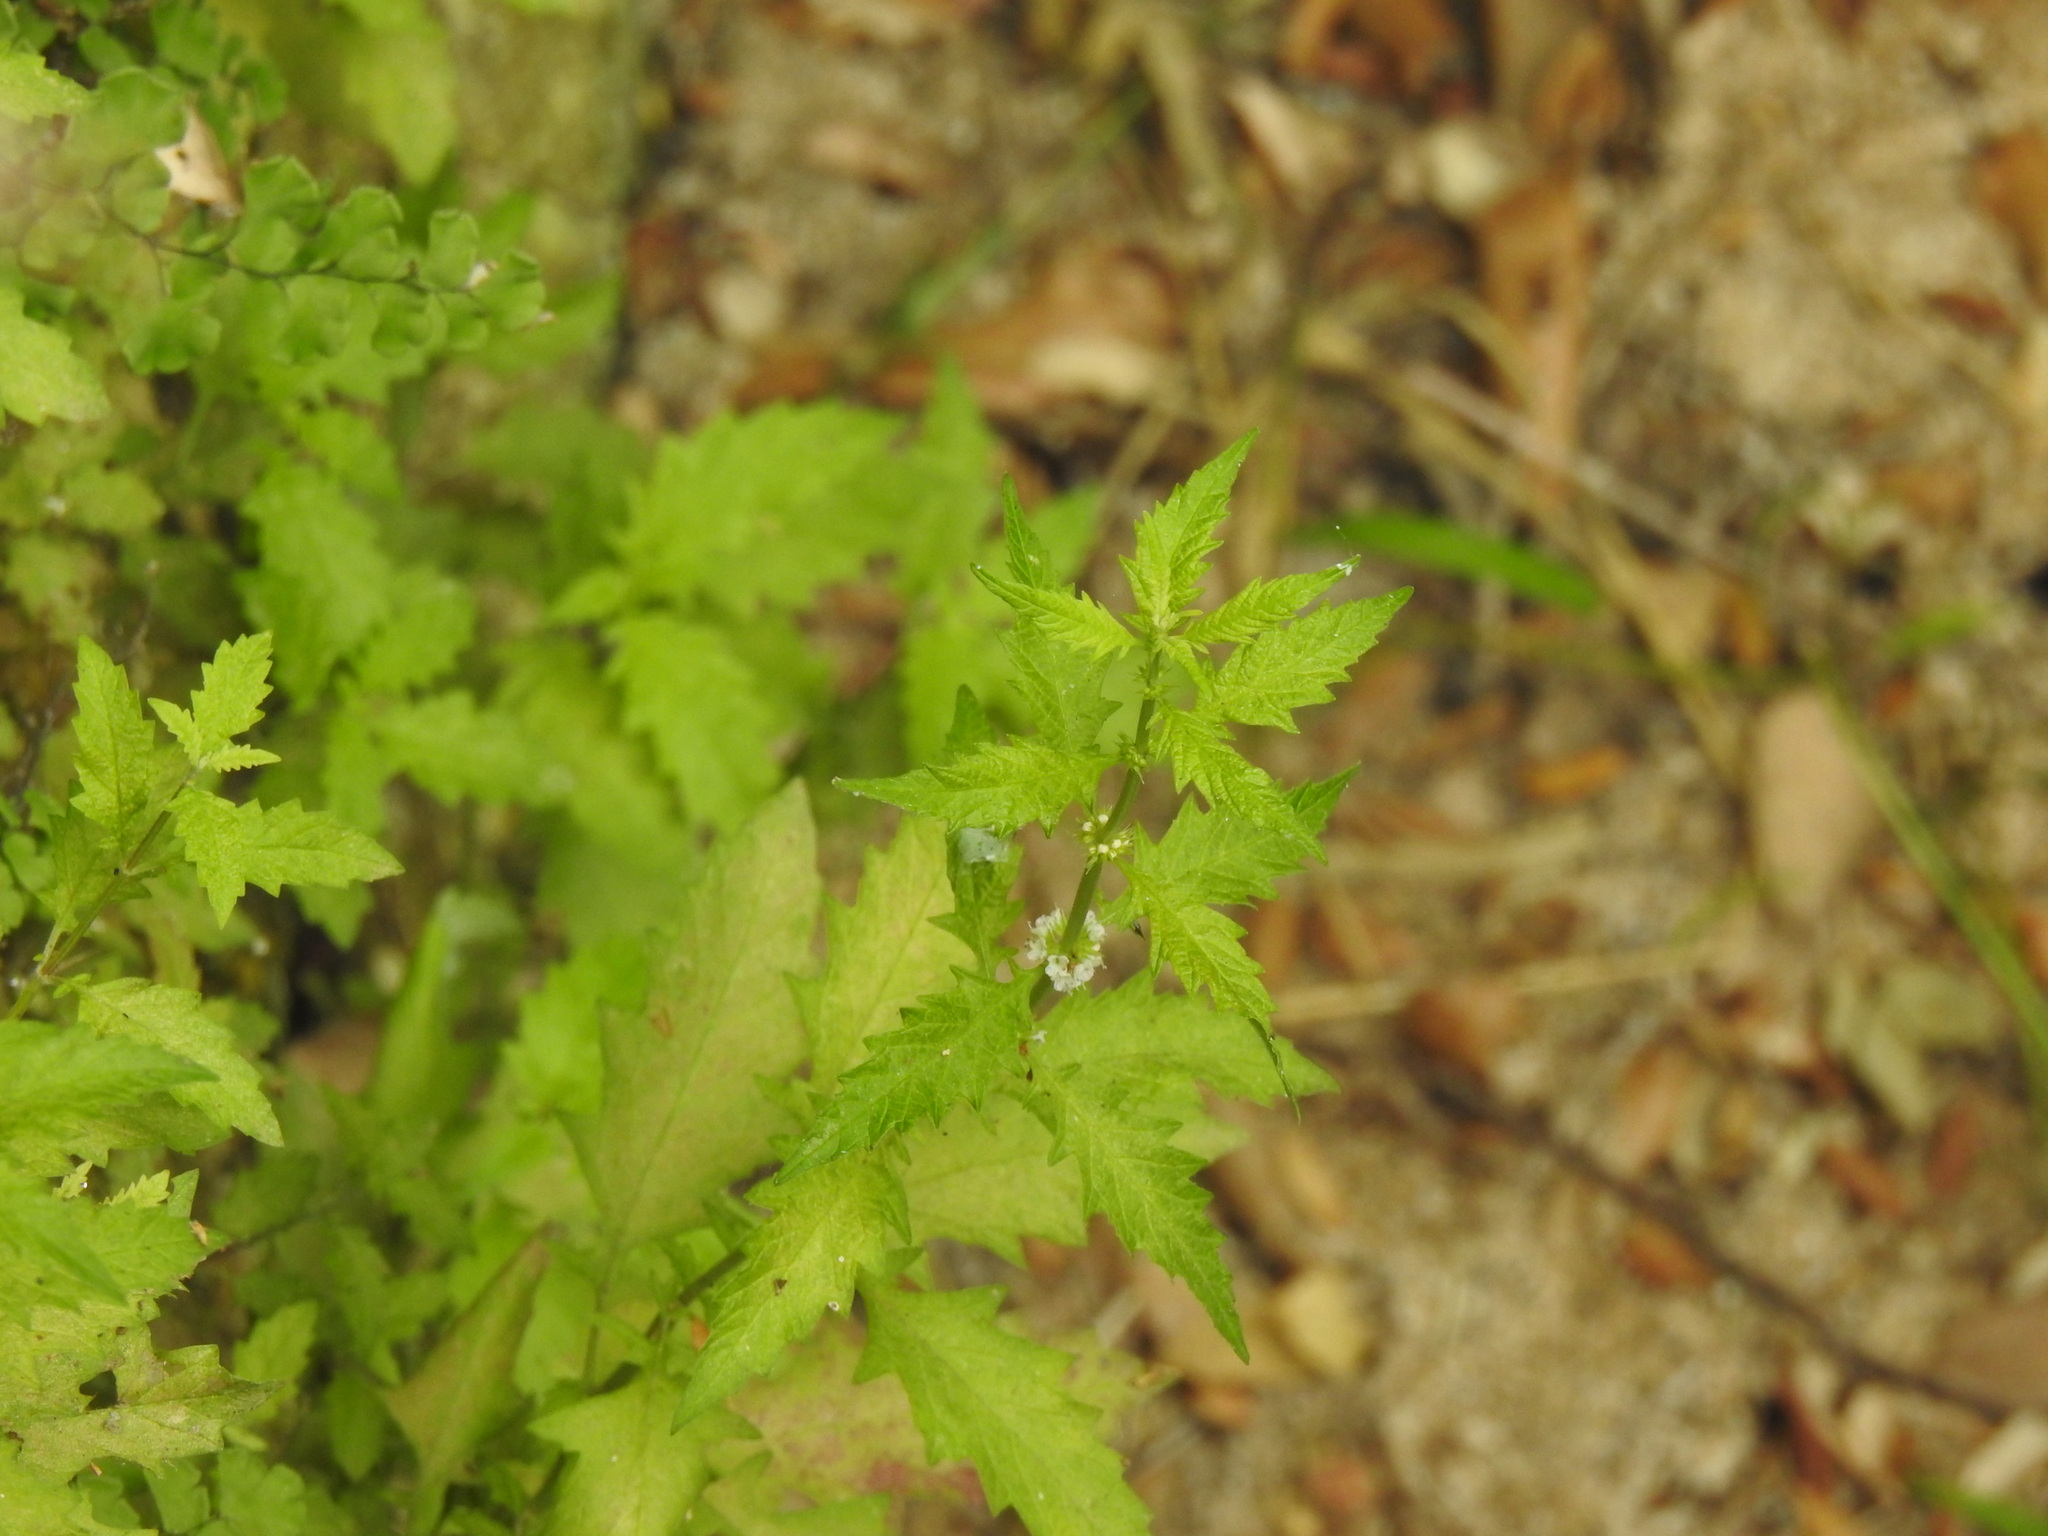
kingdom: Plantae
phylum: Tracheophyta
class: Magnoliopsida
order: Lamiales
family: Lamiaceae
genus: Lycopus
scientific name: Lycopus europaeus
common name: European bugleweed
